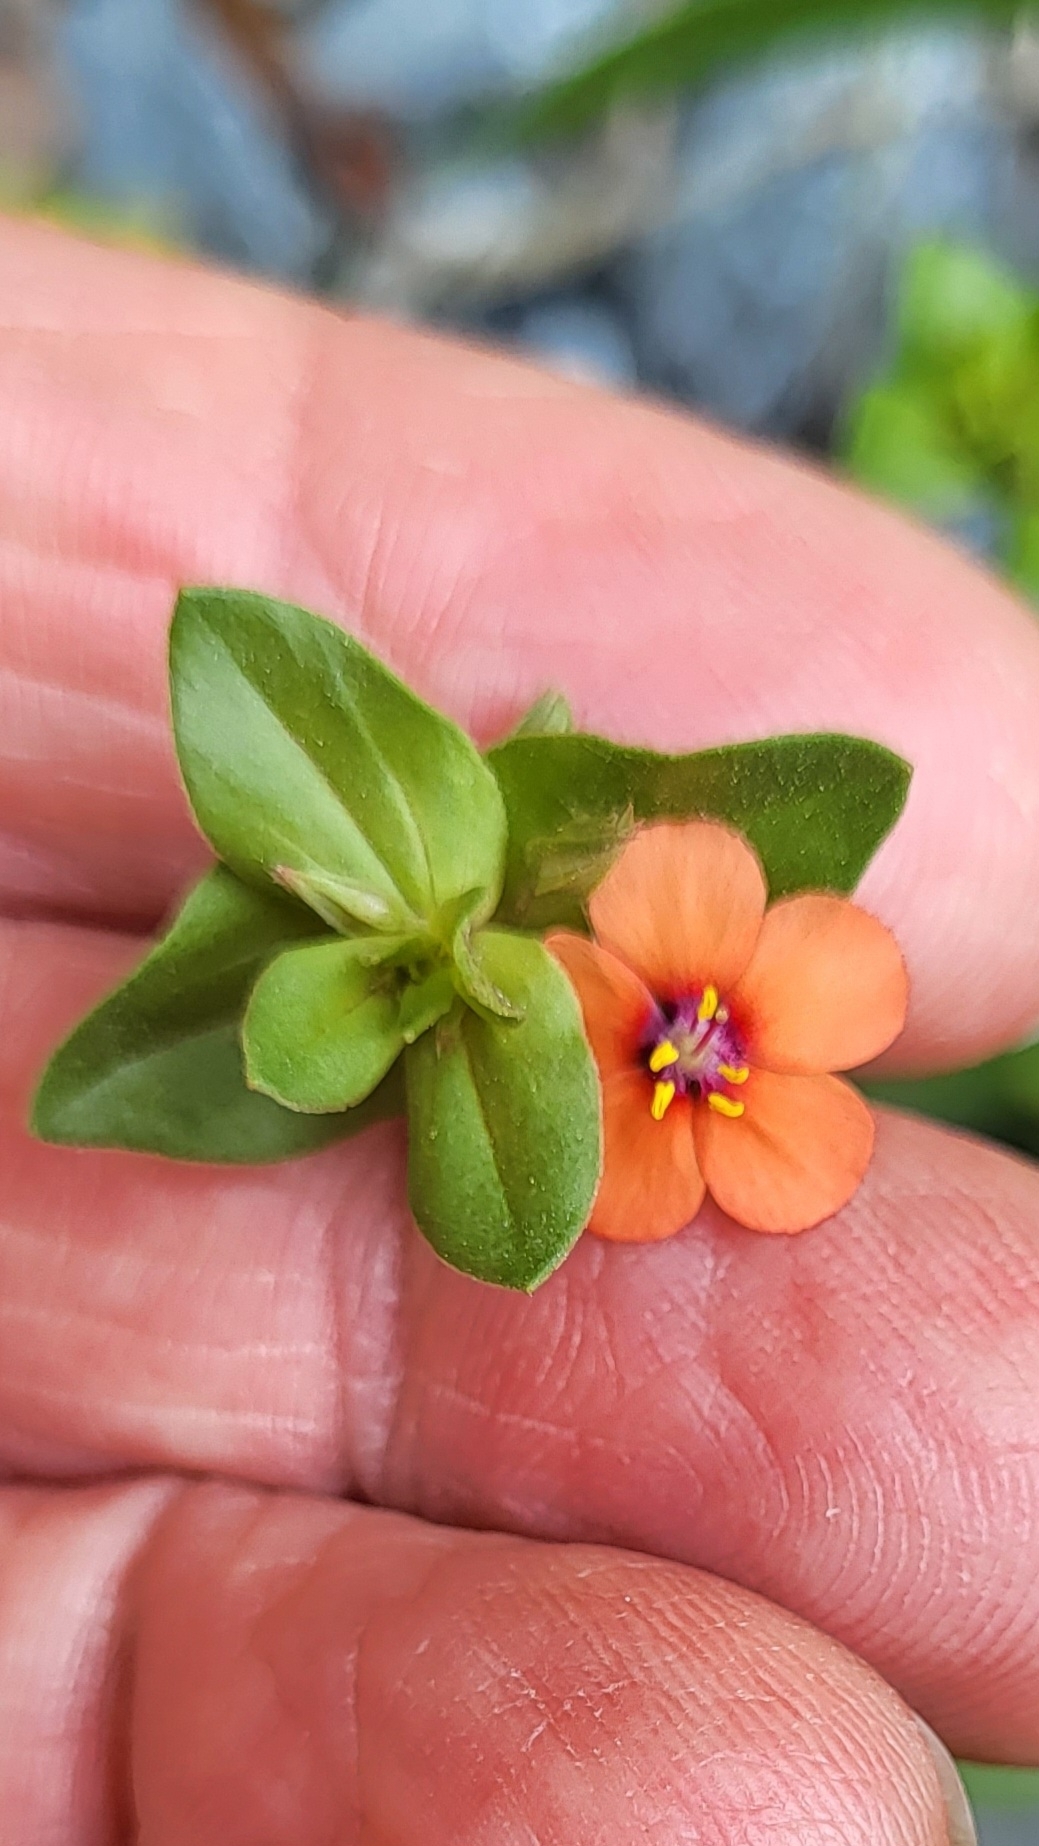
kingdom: Plantae
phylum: Tracheophyta
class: Magnoliopsida
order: Ericales
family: Primulaceae
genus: Lysimachia
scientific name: Lysimachia arvensis
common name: Scarlet pimpernel
